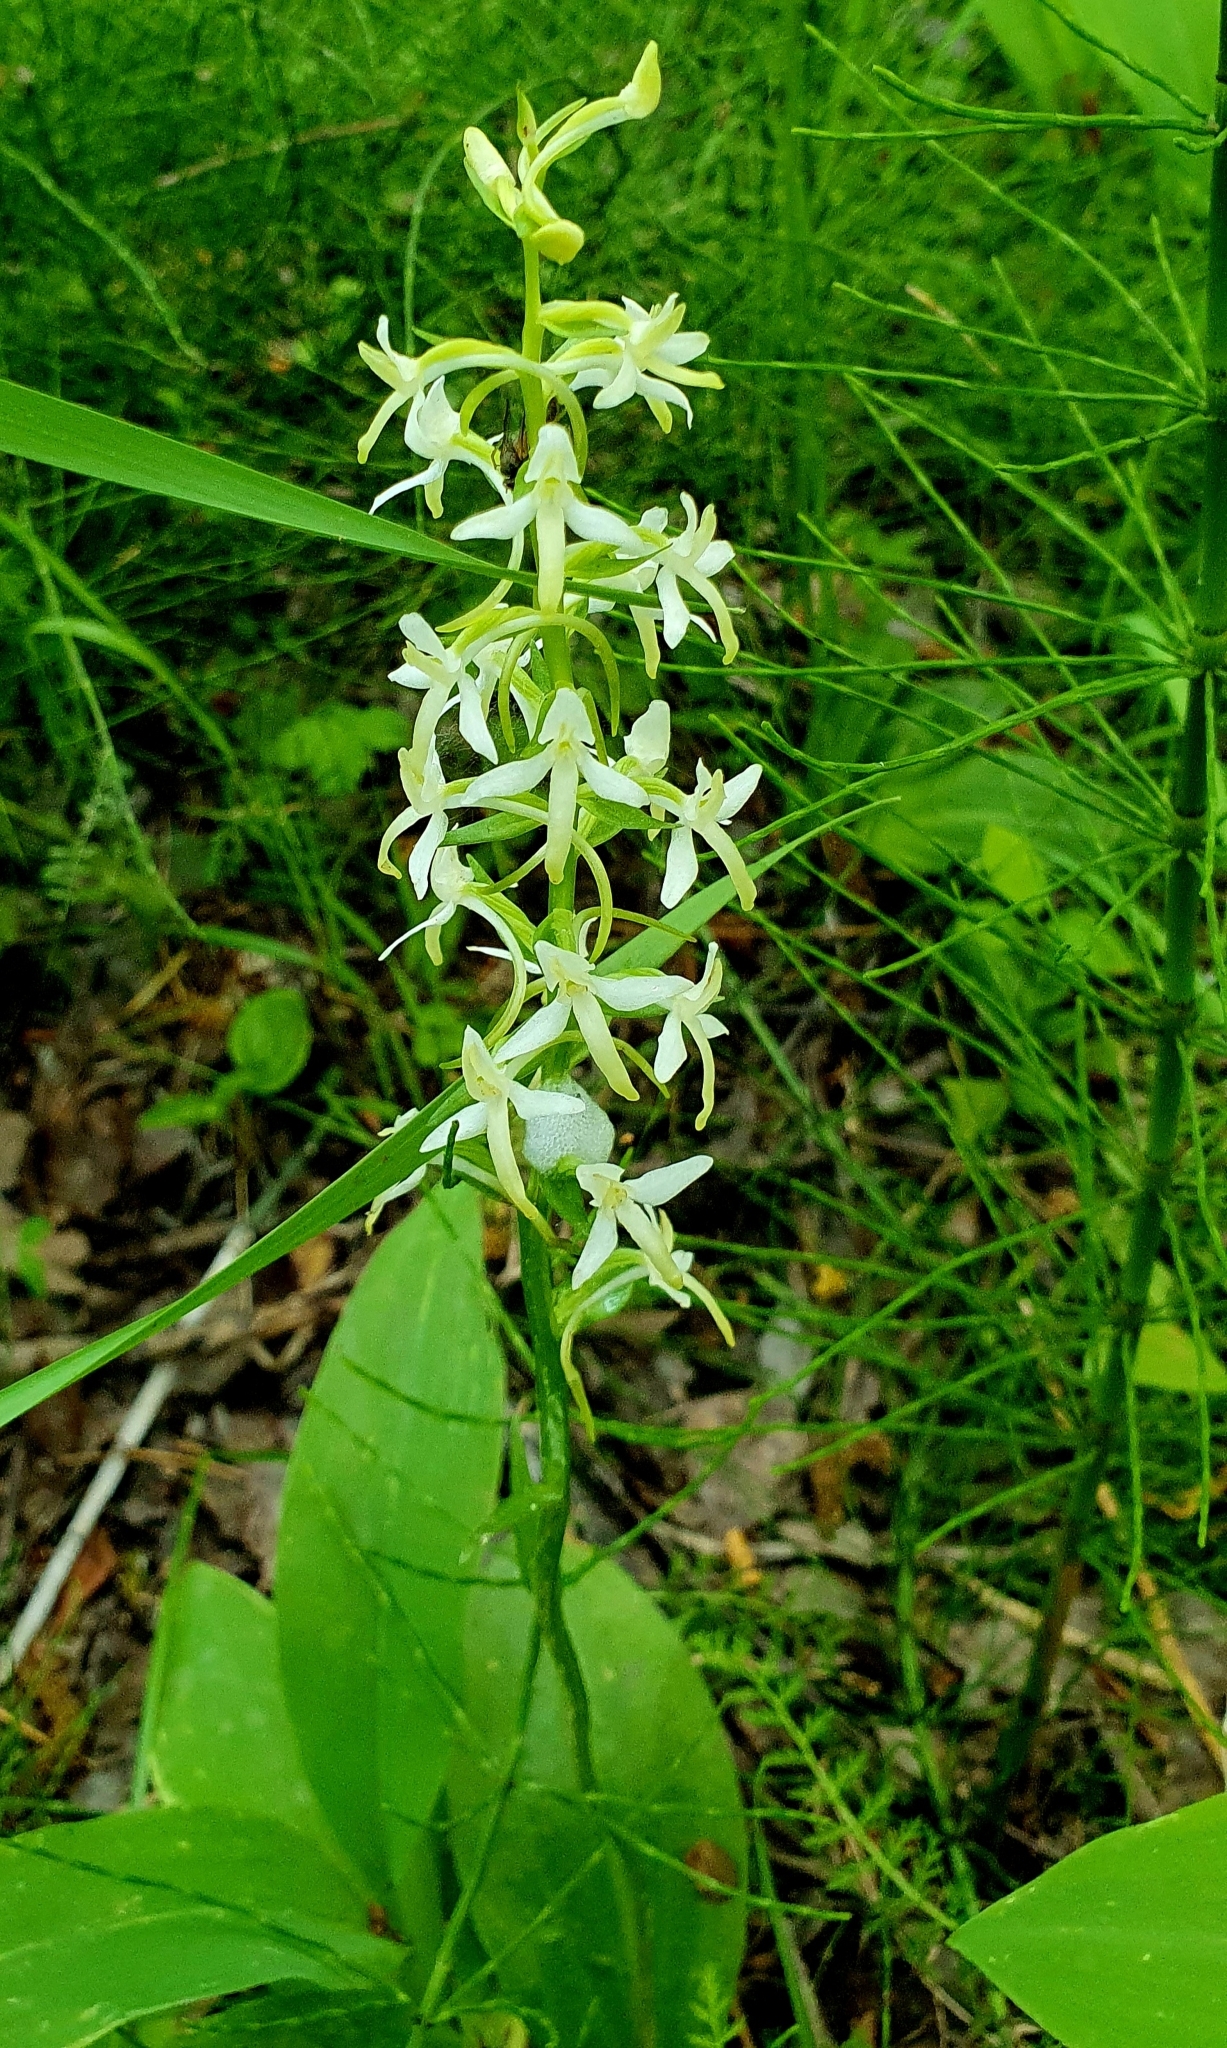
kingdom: Plantae
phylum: Tracheophyta
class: Liliopsida
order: Asparagales
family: Orchidaceae
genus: Platanthera
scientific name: Platanthera bifolia
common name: Lesser butterfly-orchid
